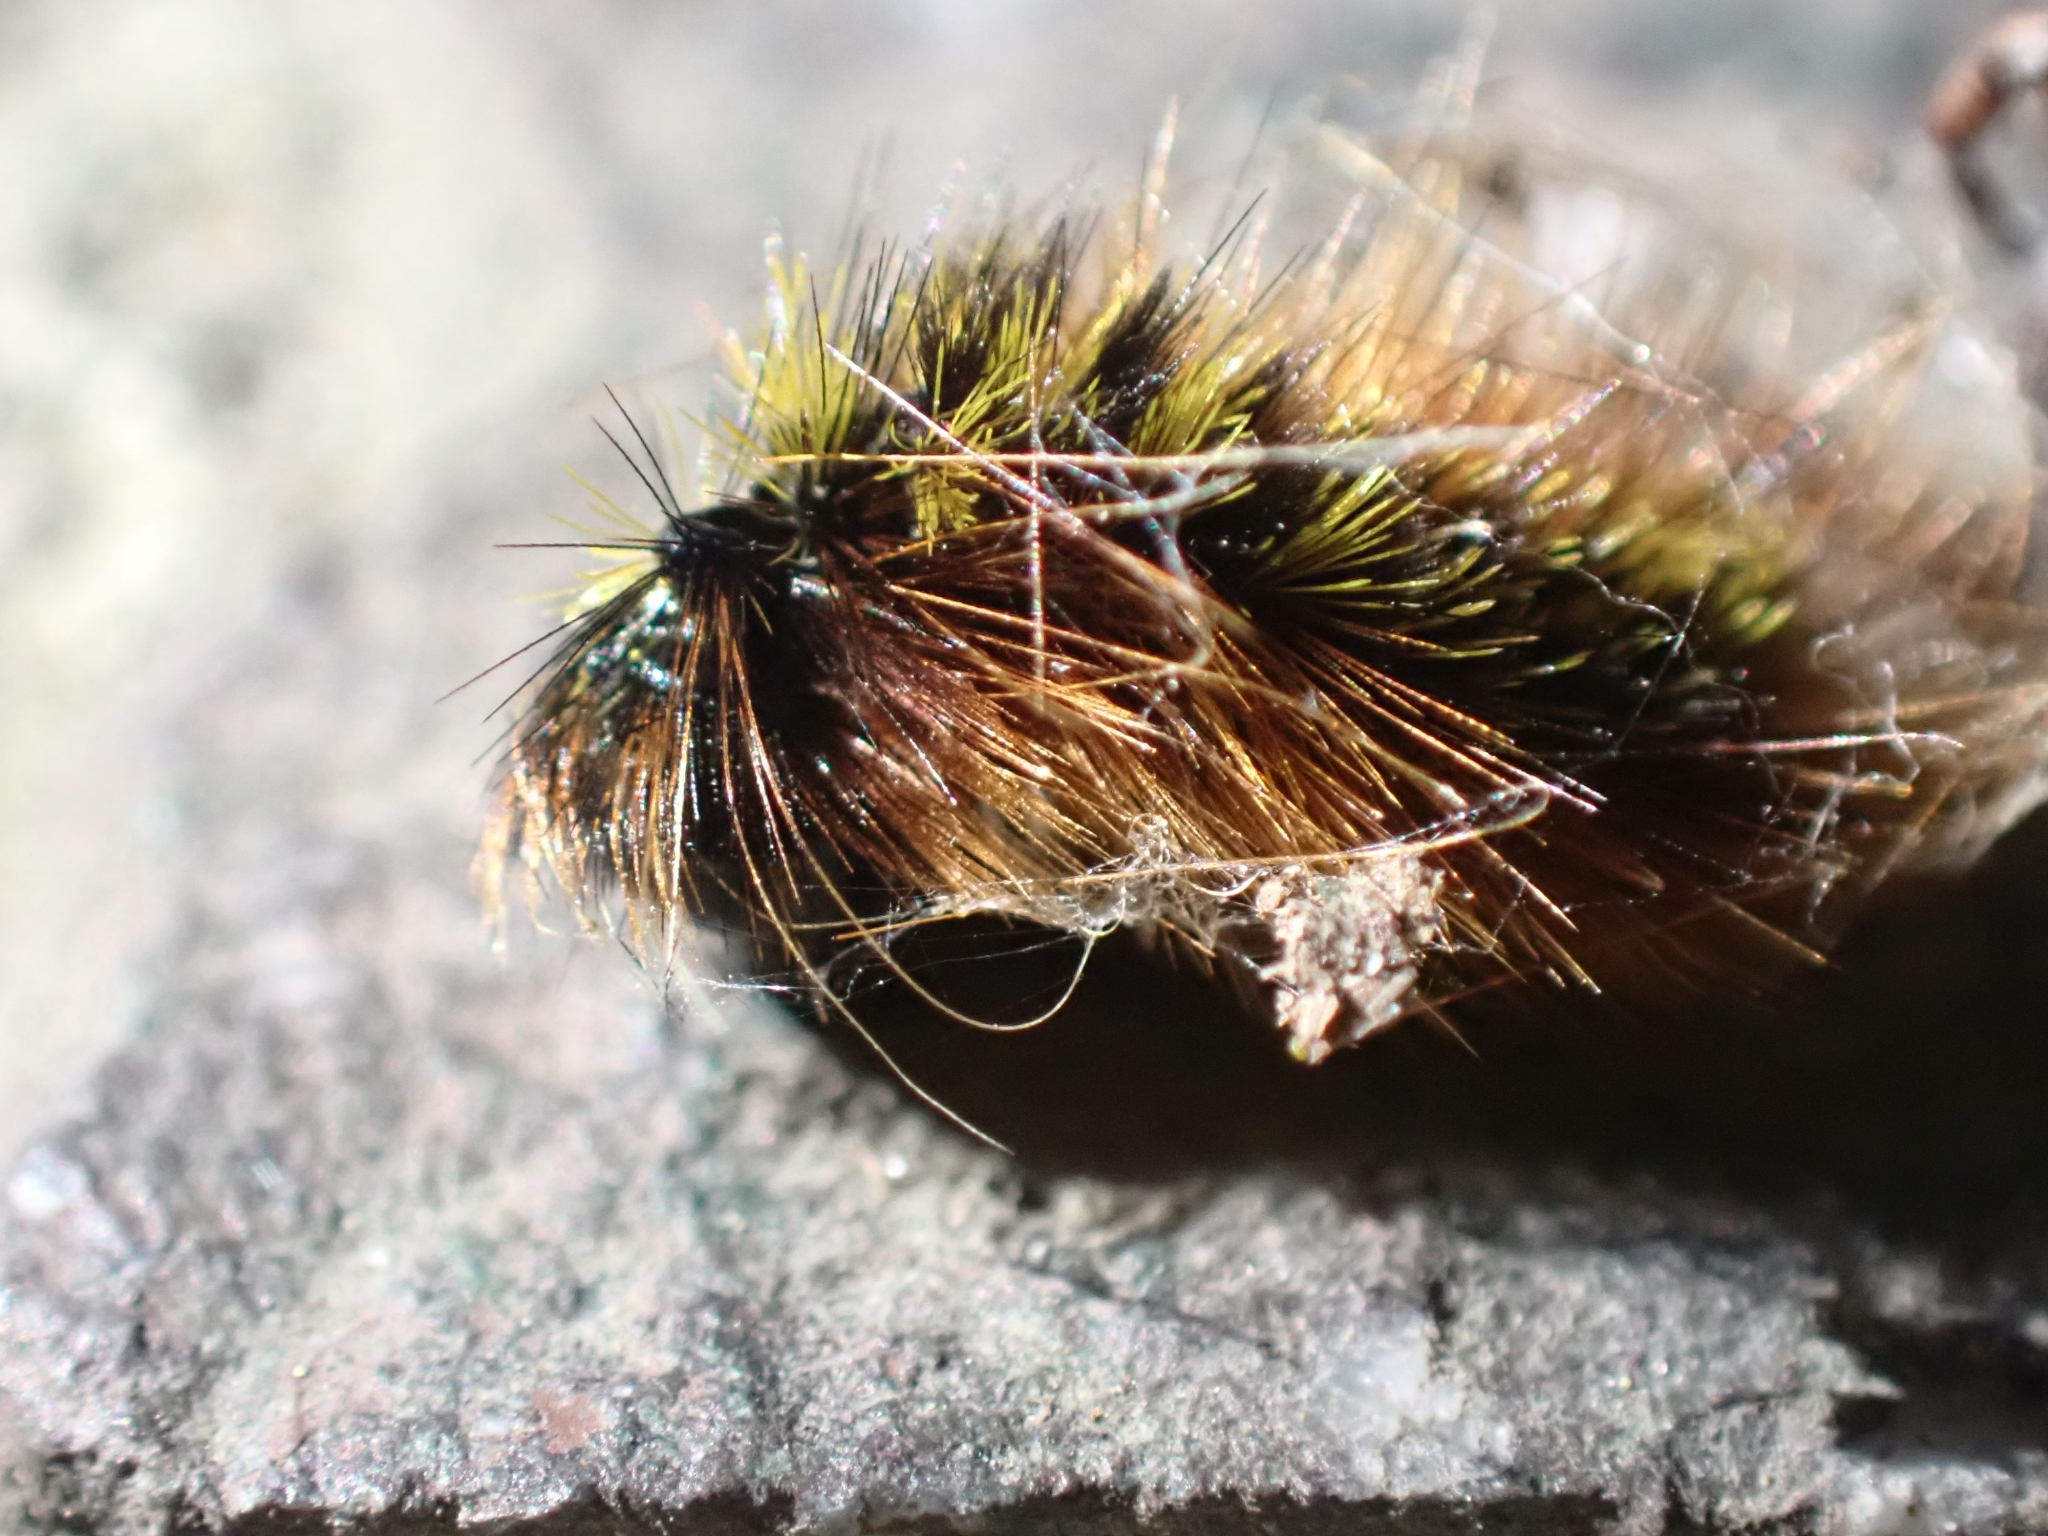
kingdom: Animalia
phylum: Arthropoda
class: Insecta
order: Lepidoptera
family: Erebidae
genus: Lophocampa
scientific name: Lophocampa argentata
